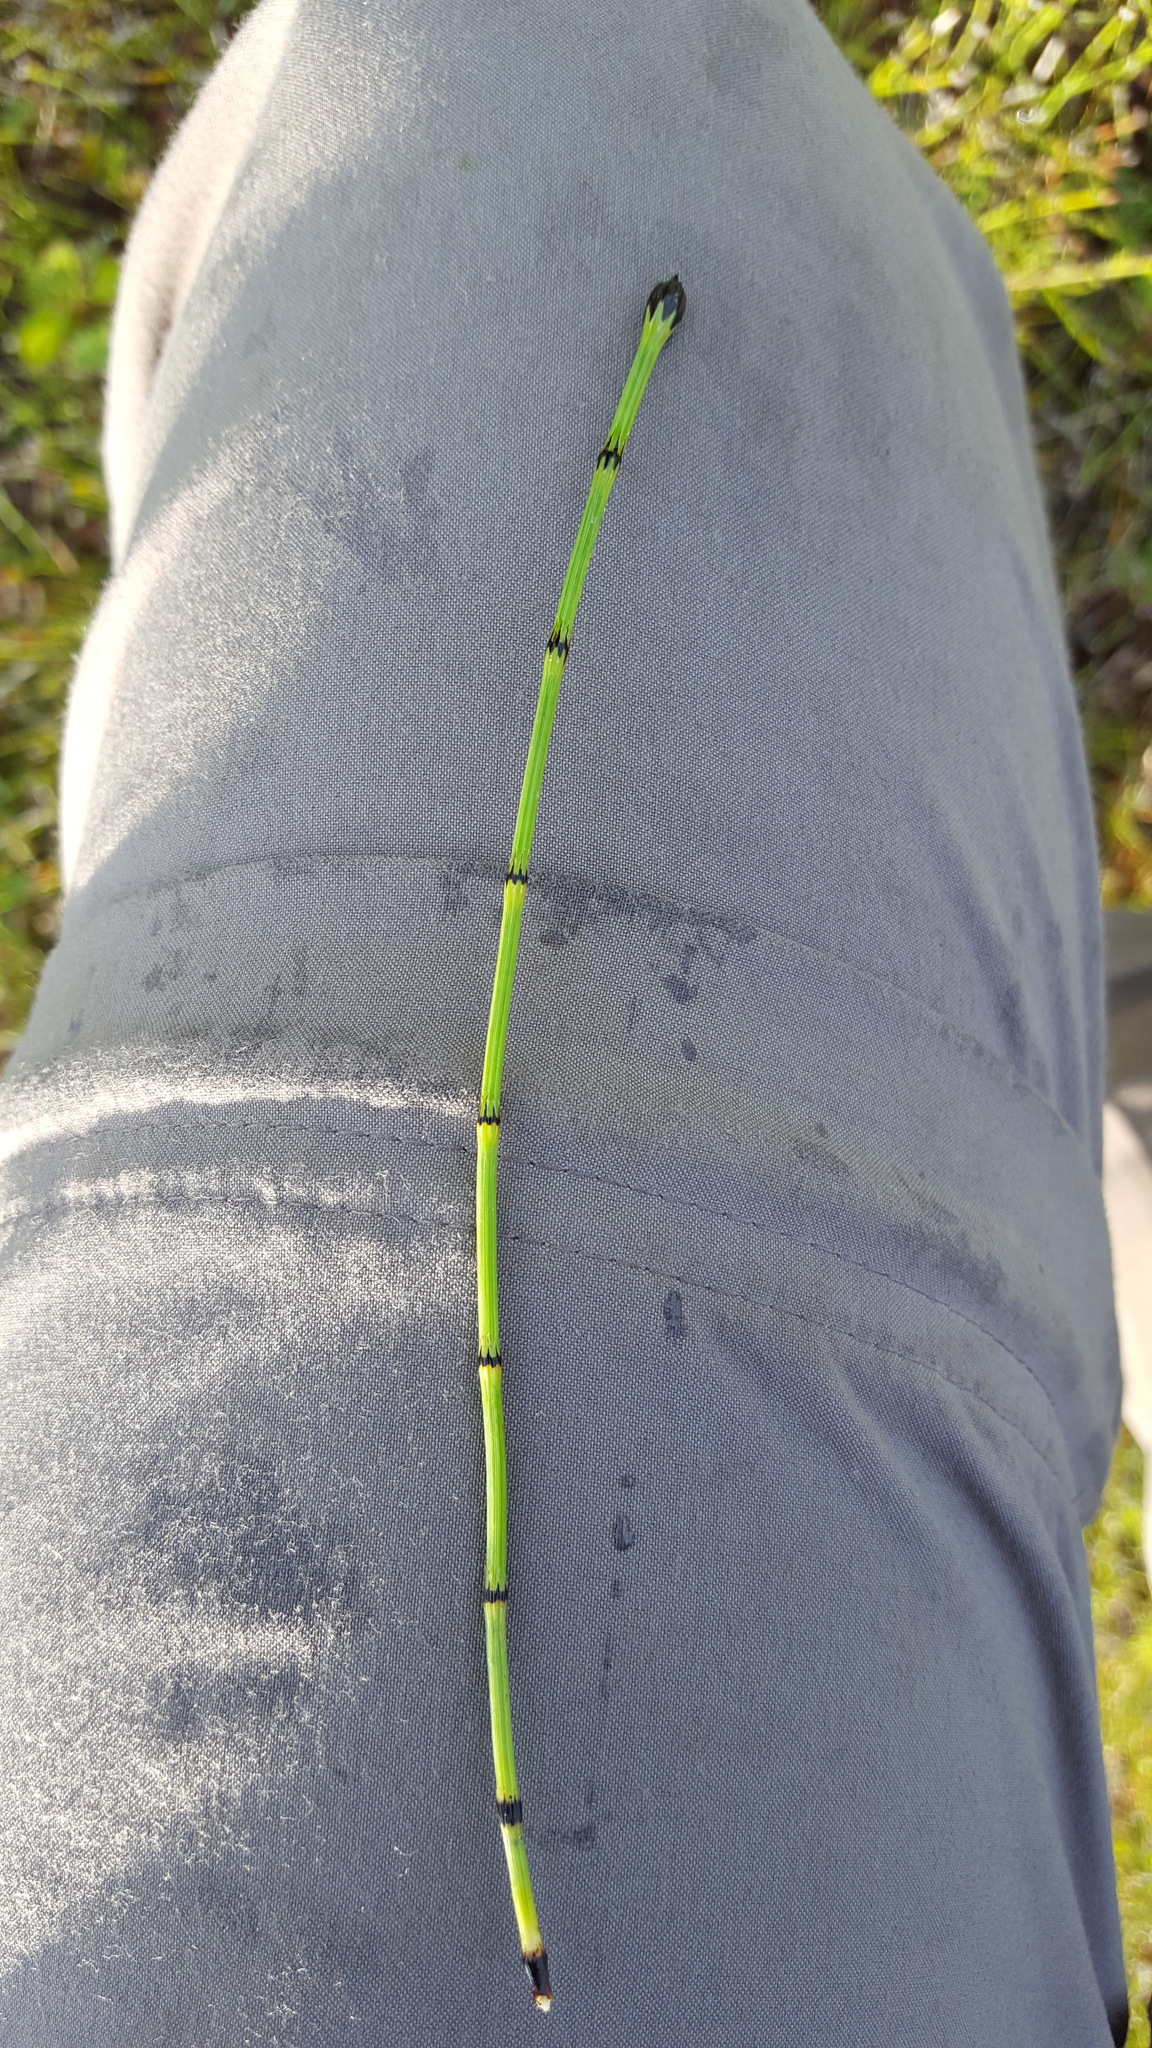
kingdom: Plantae
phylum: Tracheophyta
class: Polypodiopsida
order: Equisetales
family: Equisetaceae
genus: Equisetum
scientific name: Equisetum variegatum
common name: Variegated horsetail
